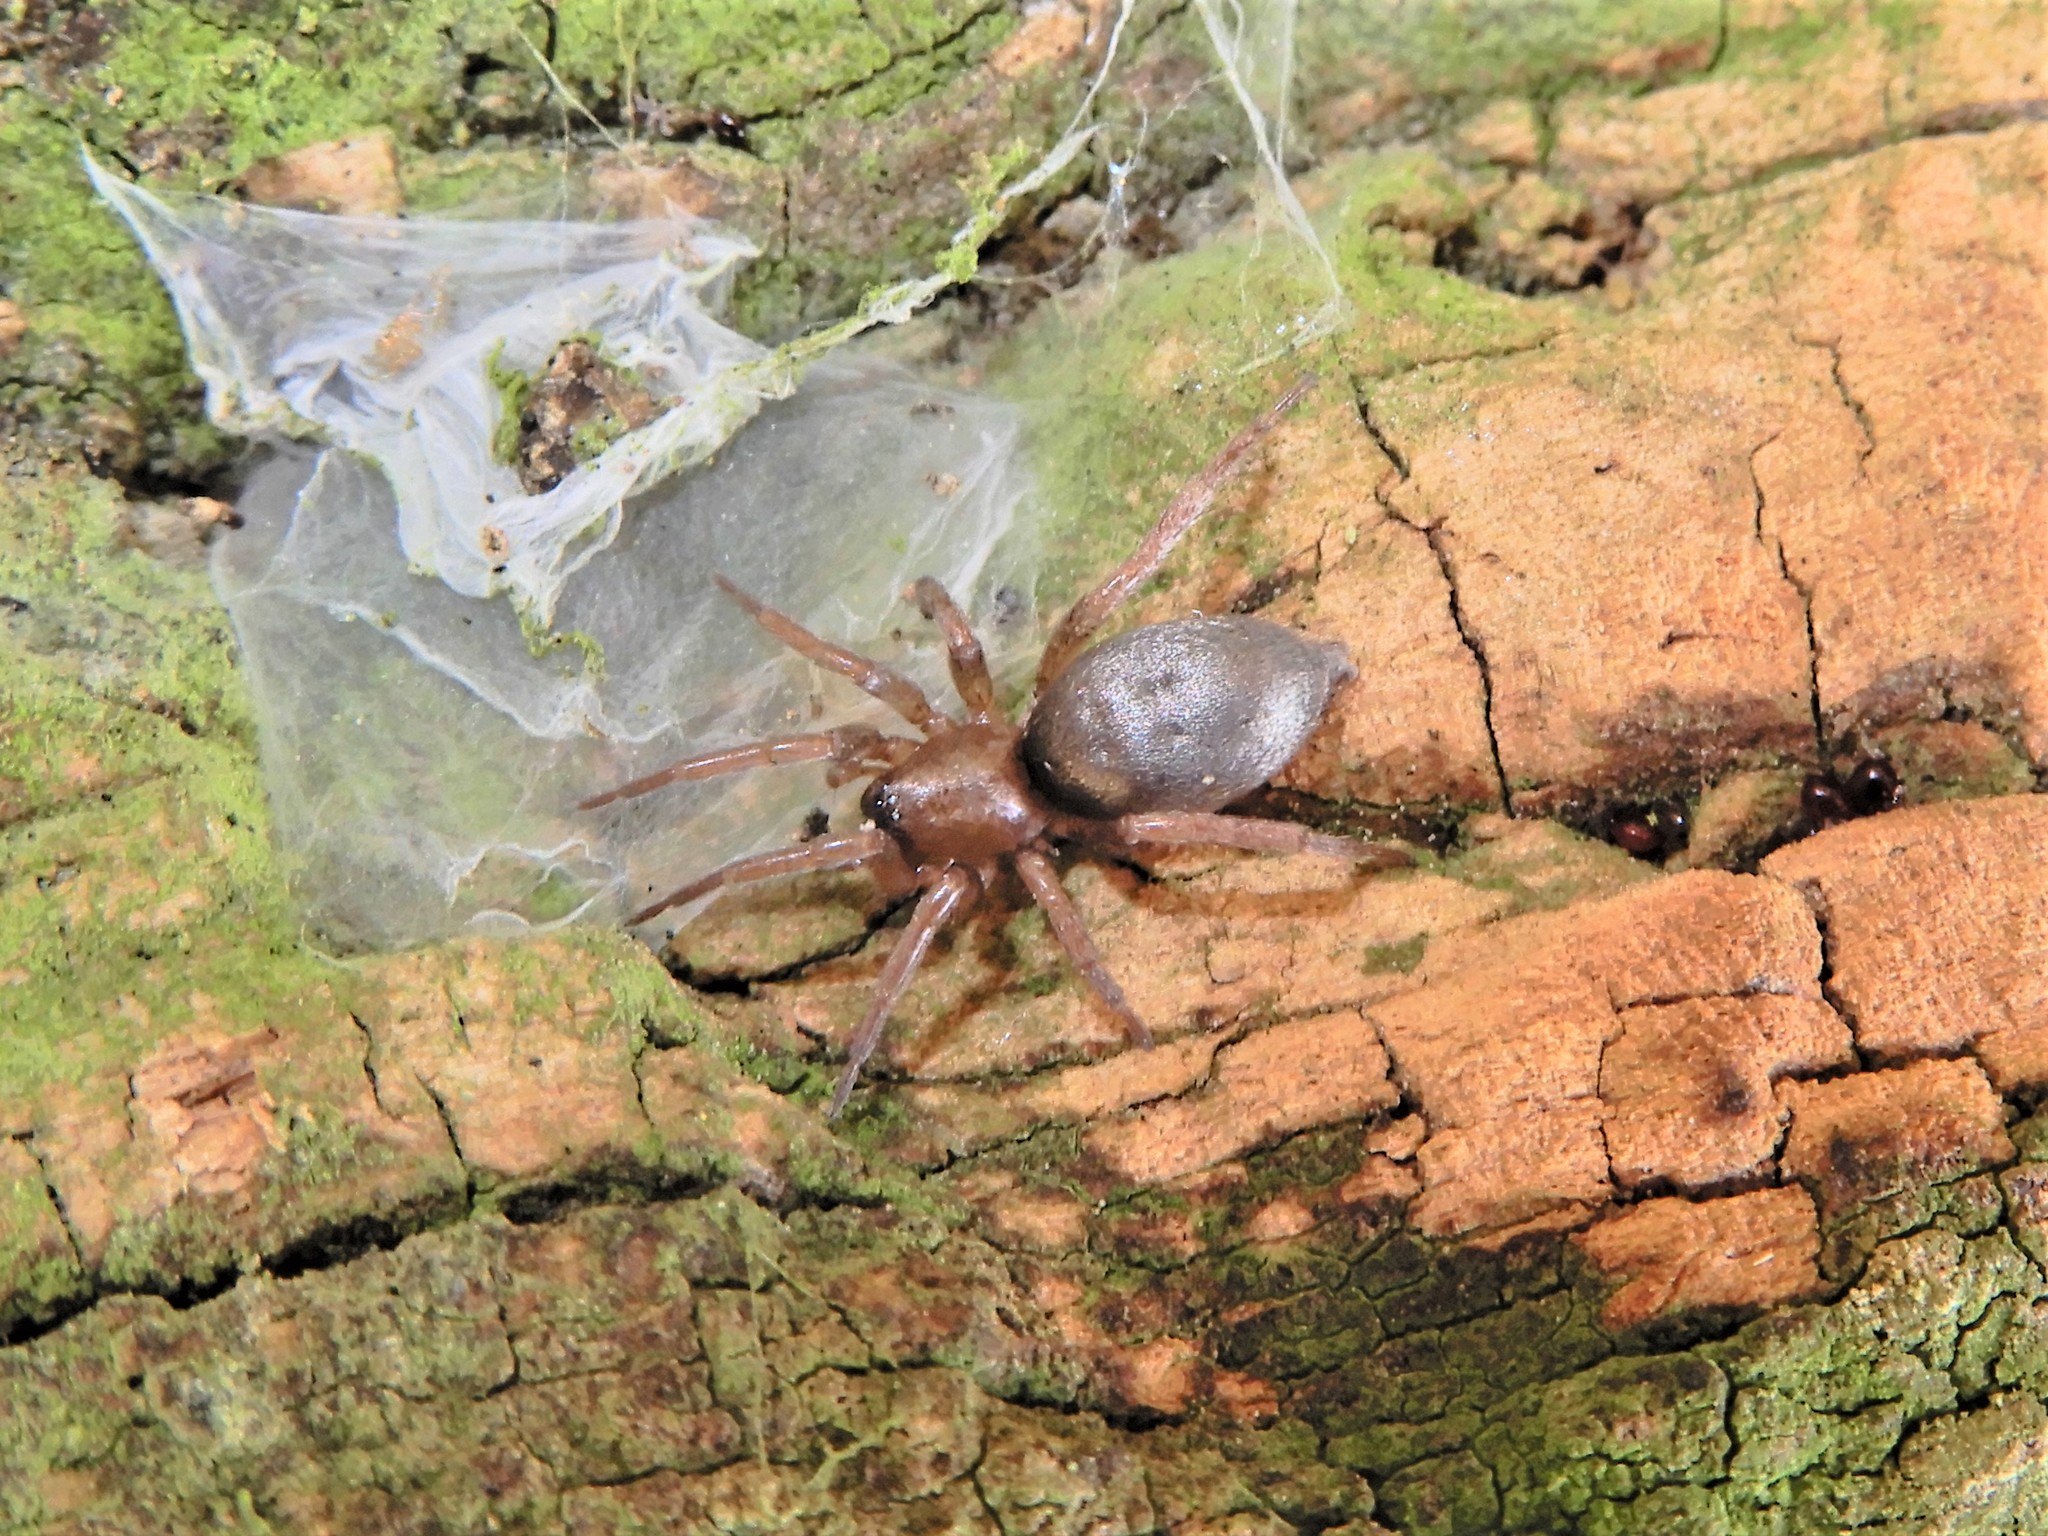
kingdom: Animalia
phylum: Arthropoda
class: Arachnida
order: Araneae
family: Gnaphosidae
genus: Hypodrassodes
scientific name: Hypodrassodes maoricus
